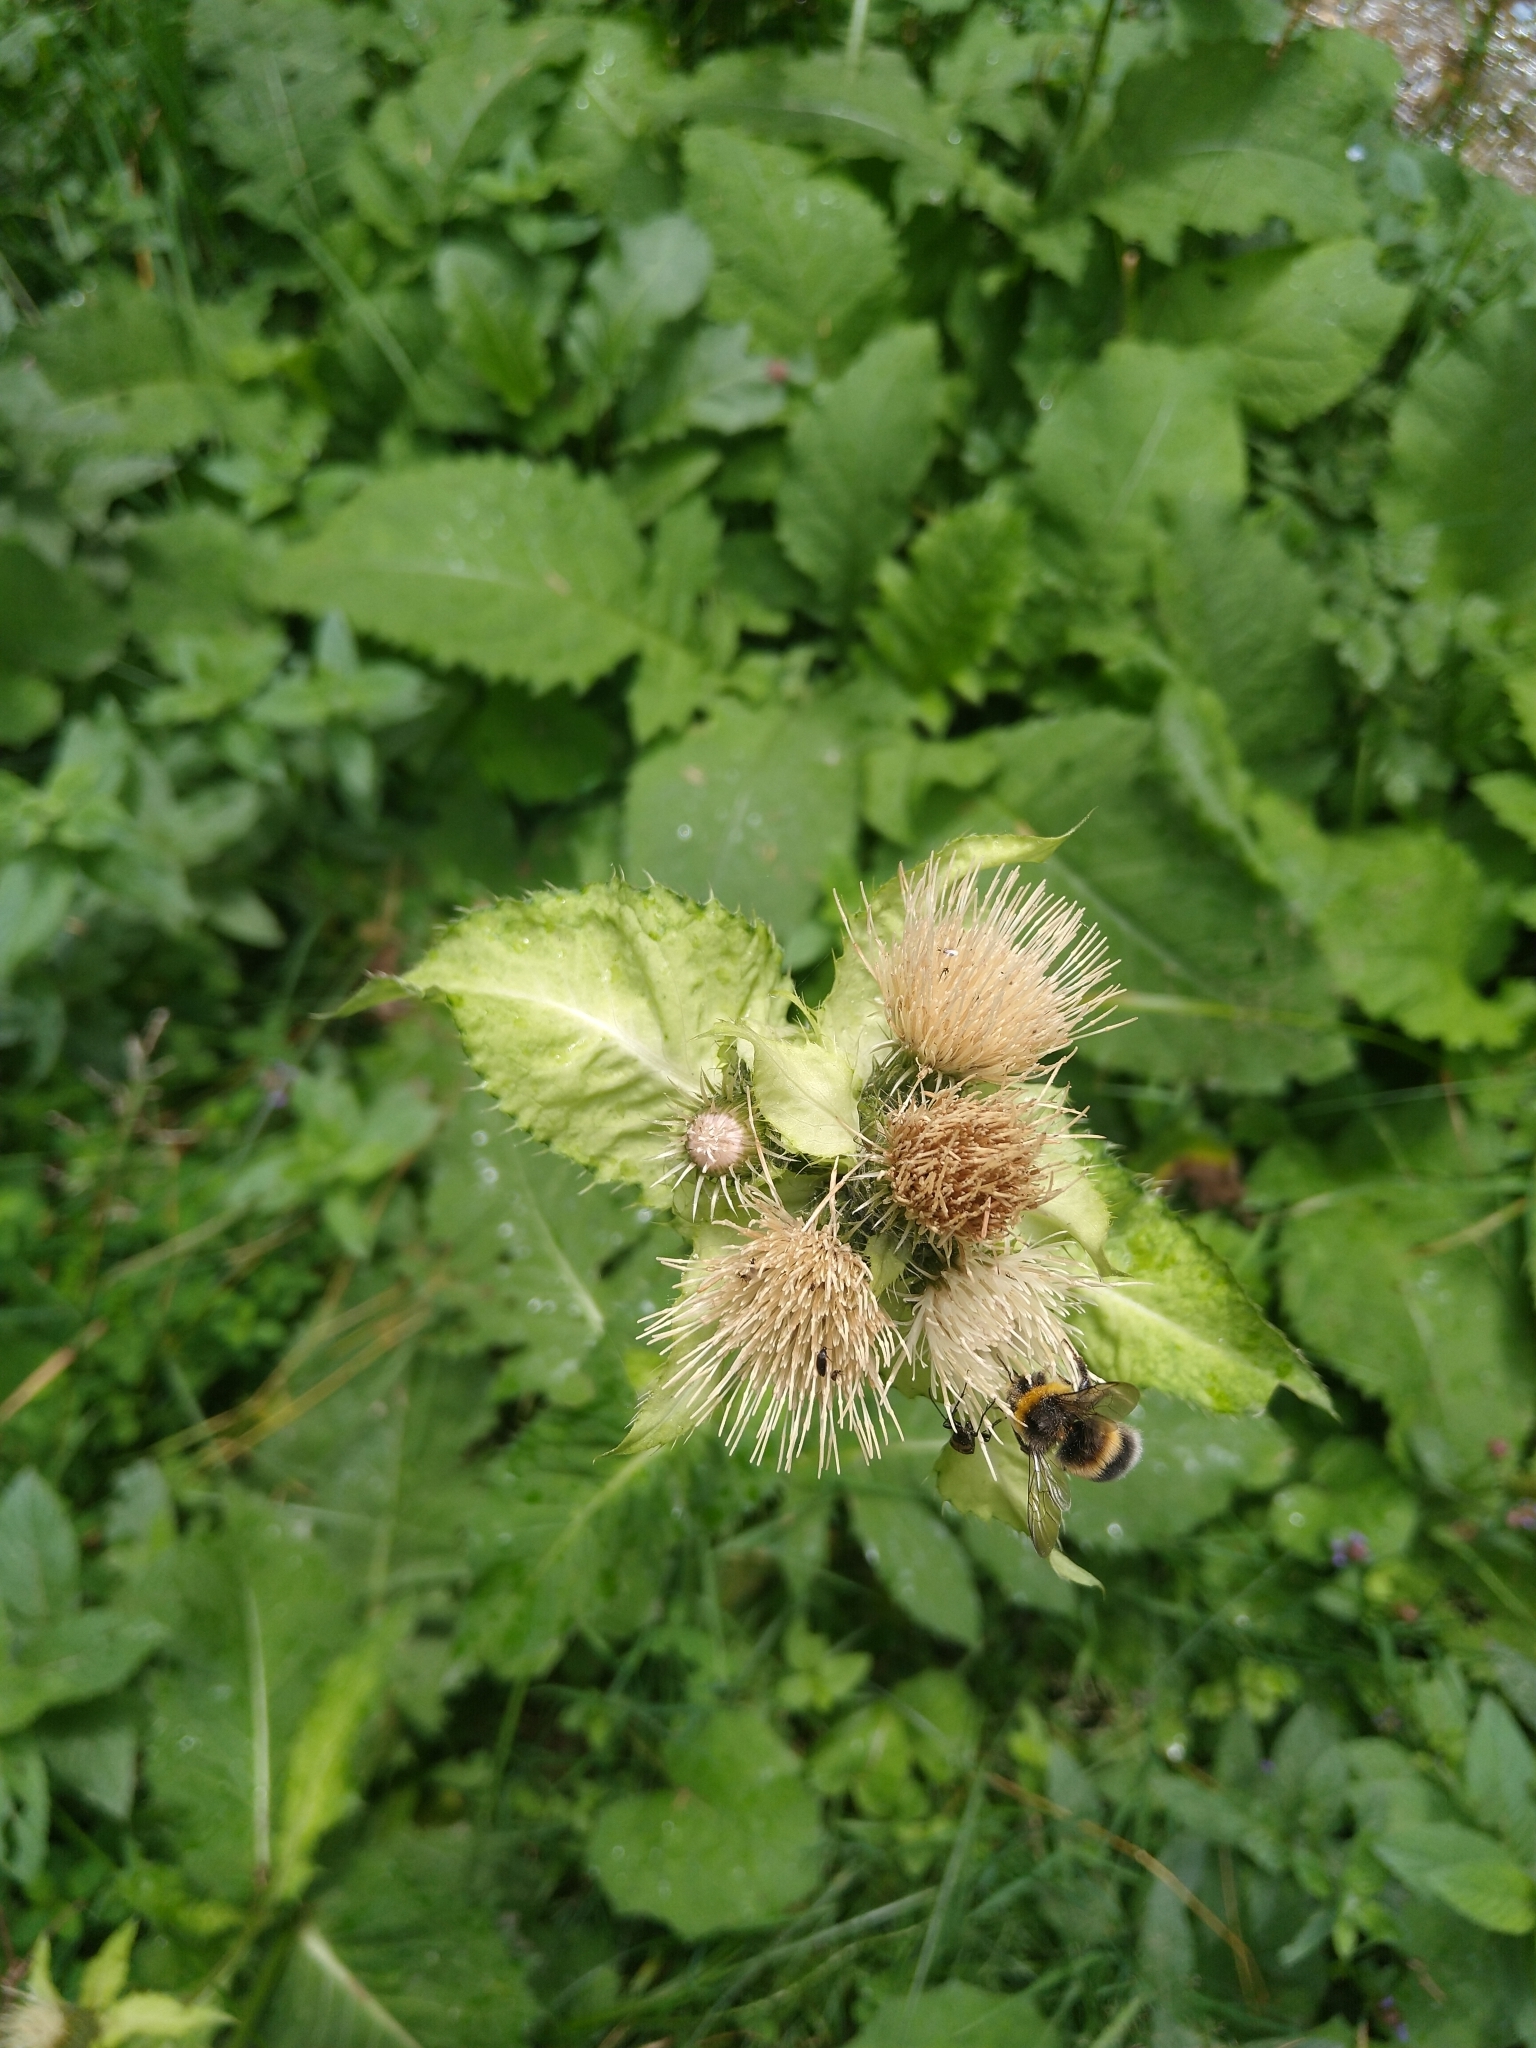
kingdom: Plantae
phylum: Tracheophyta
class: Magnoliopsida
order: Asterales
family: Asteraceae
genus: Cirsium
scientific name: Cirsium oleraceum
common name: Cabbage thistle
